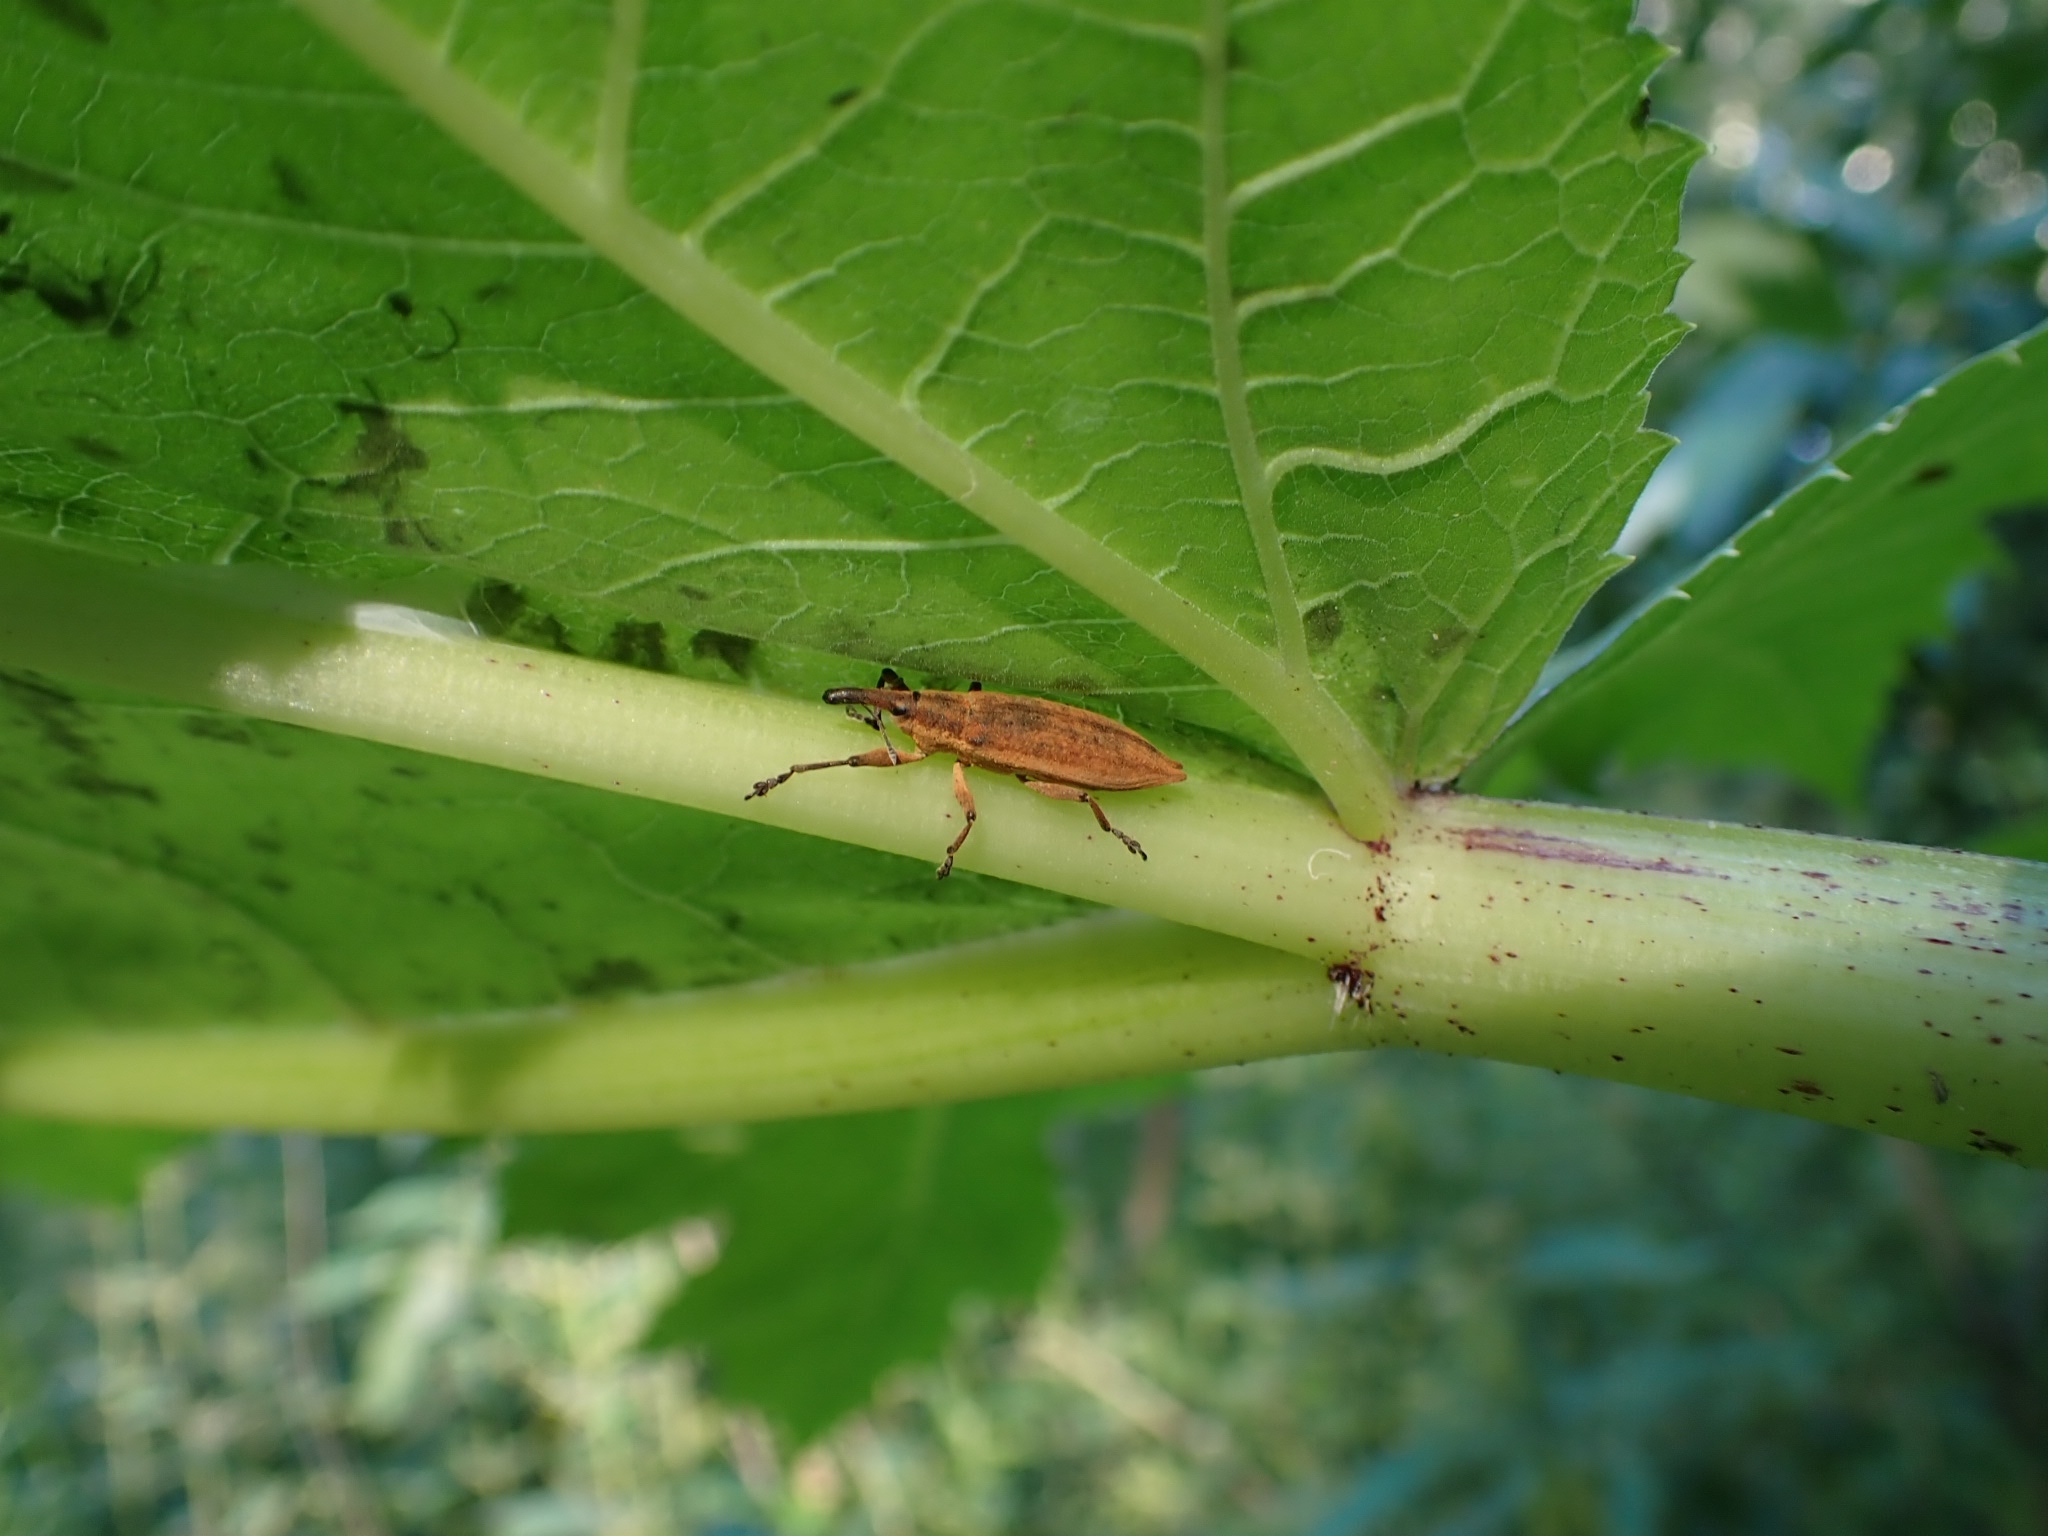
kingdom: Animalia
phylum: Arthropoda
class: Insecta
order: Coleoptera
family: Curculionidae
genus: Lixus
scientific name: Lixus iridis
